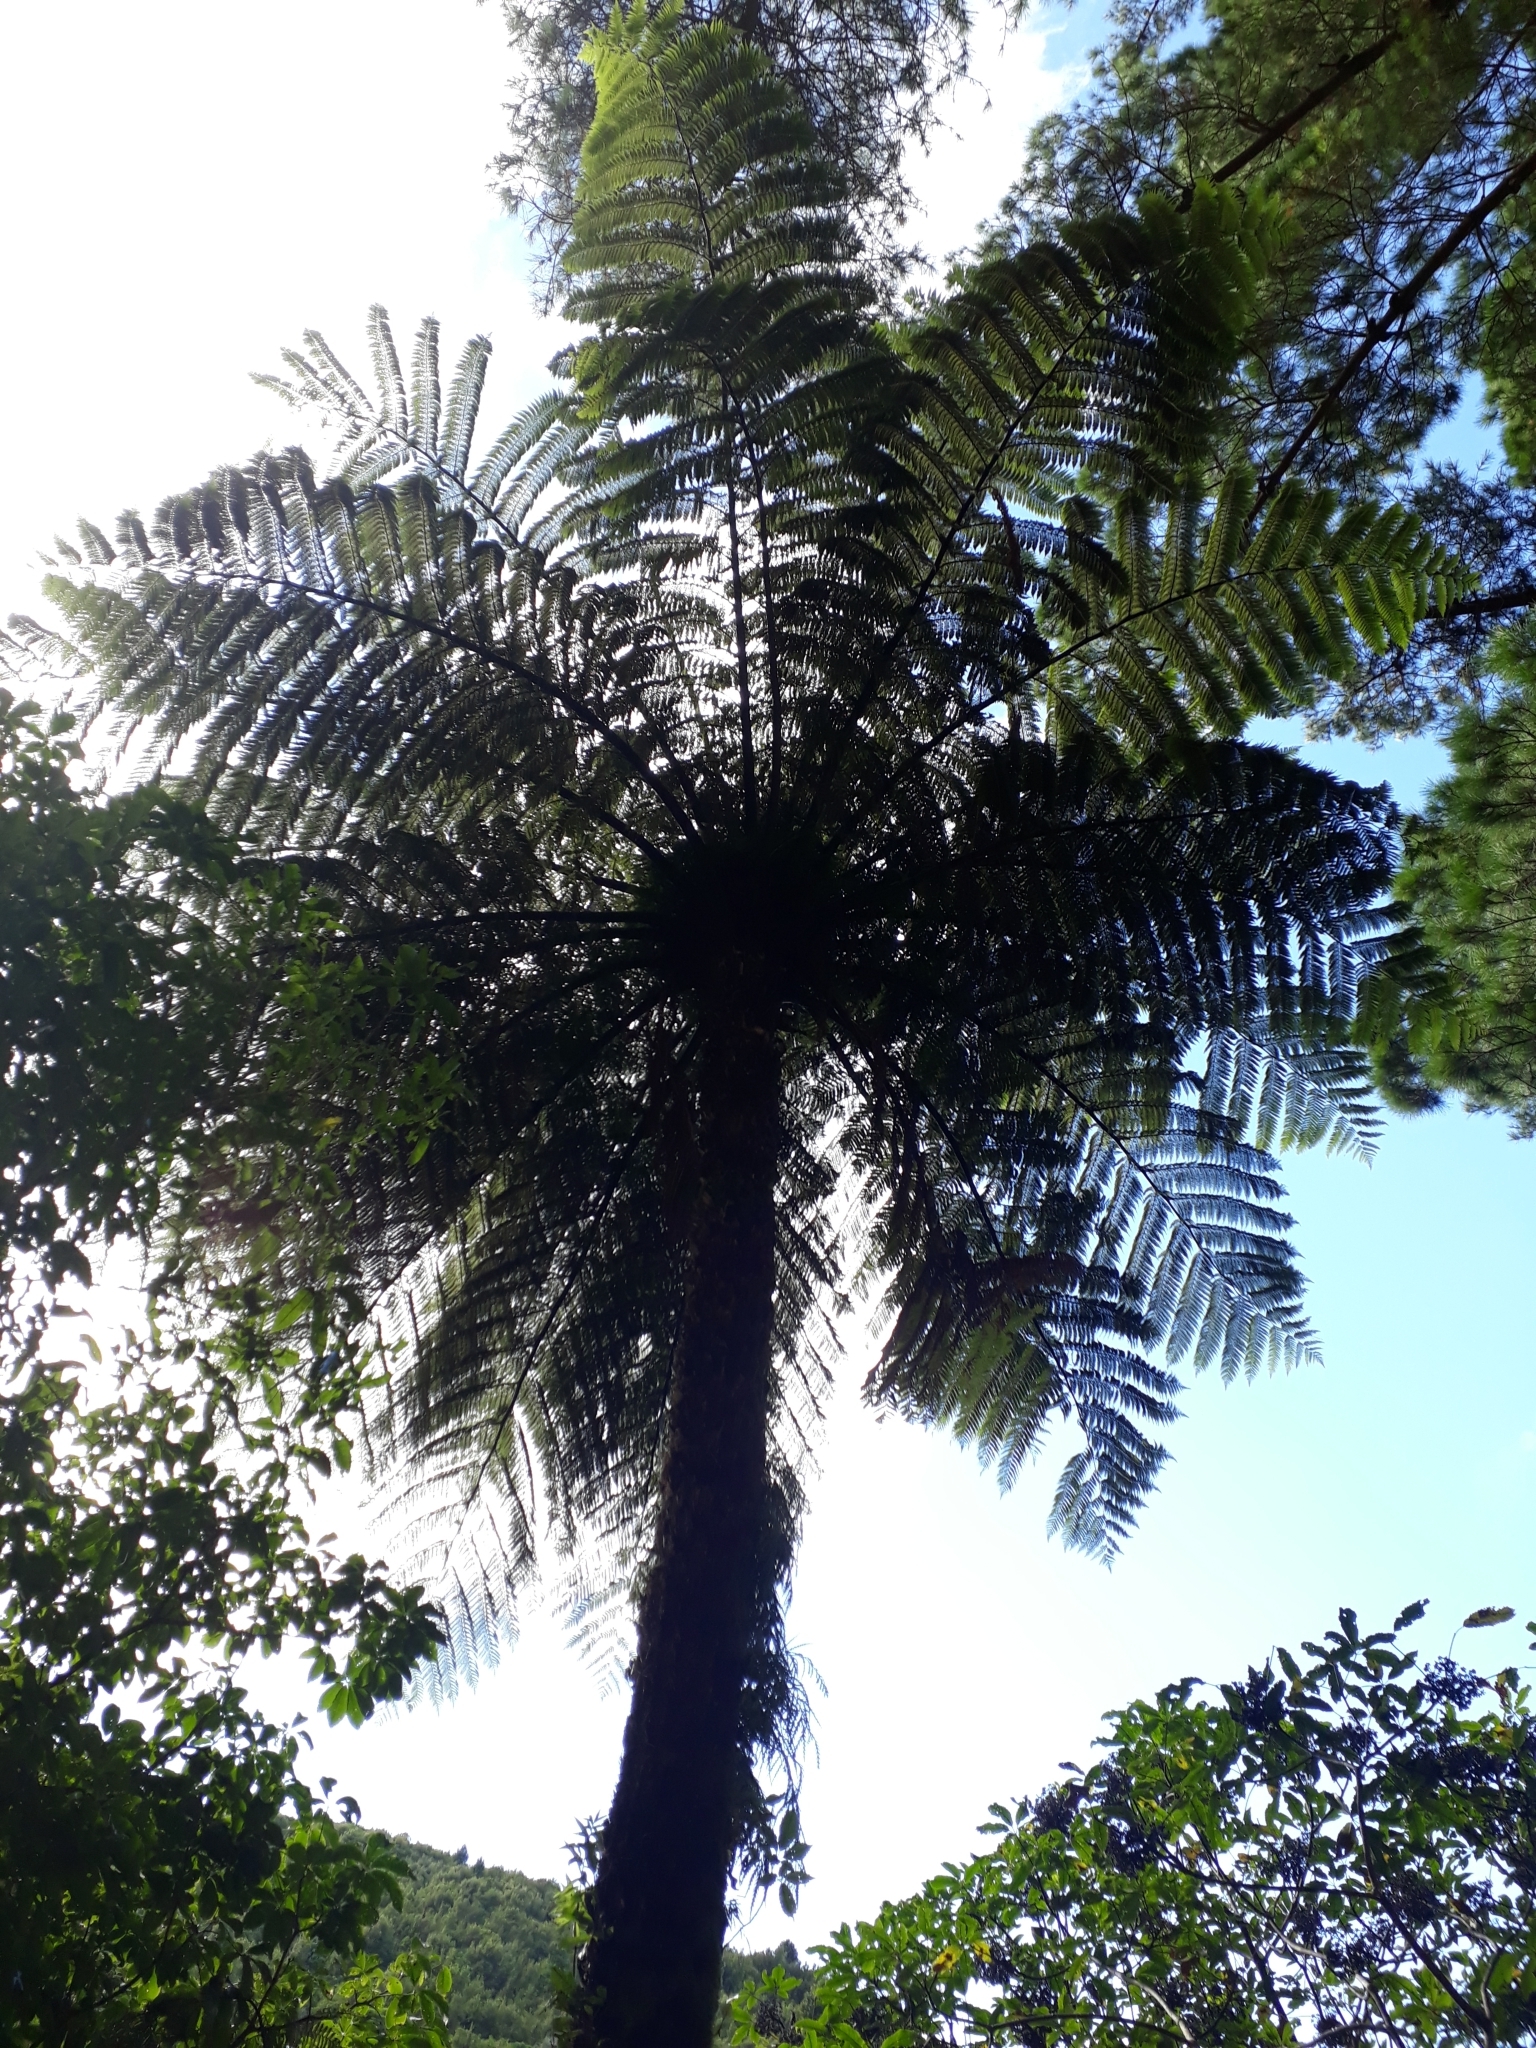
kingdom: Plantae
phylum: Tracheophyta
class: Polypodiopsida
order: Cyatheales
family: Cyatheaceae
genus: Sphaeropteris
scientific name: Sphaeropteris medullaris
